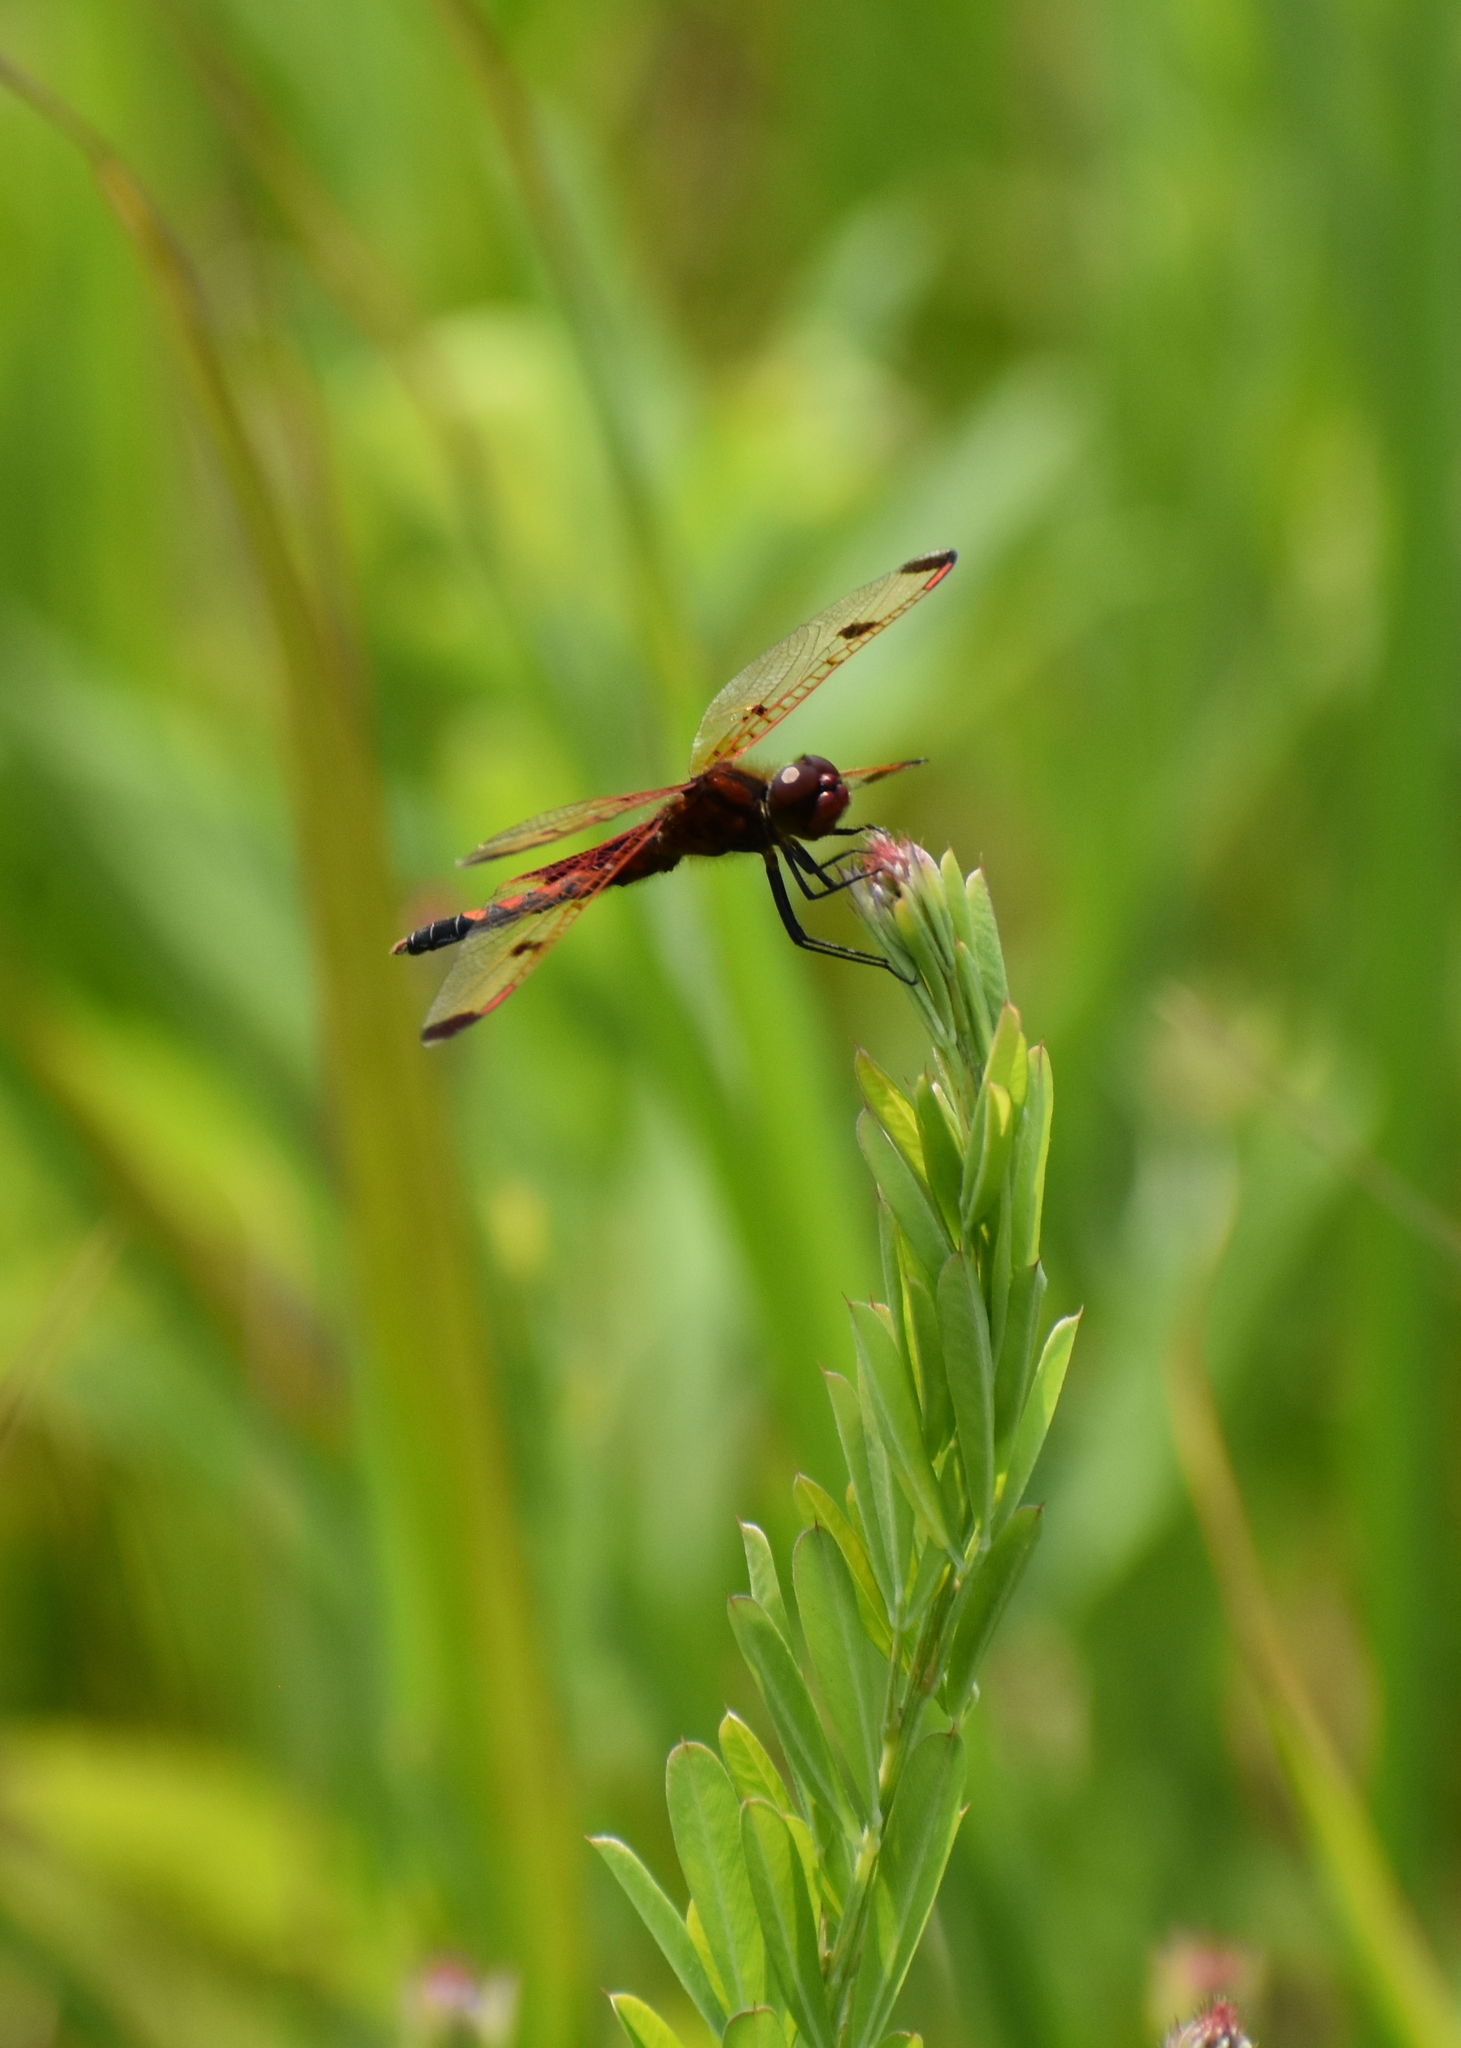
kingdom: Animalia
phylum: Arthropoda
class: Insecta
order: Odonata
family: Libellulidae
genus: Celithemis
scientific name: Celithemis elisa
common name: Calico pennant
